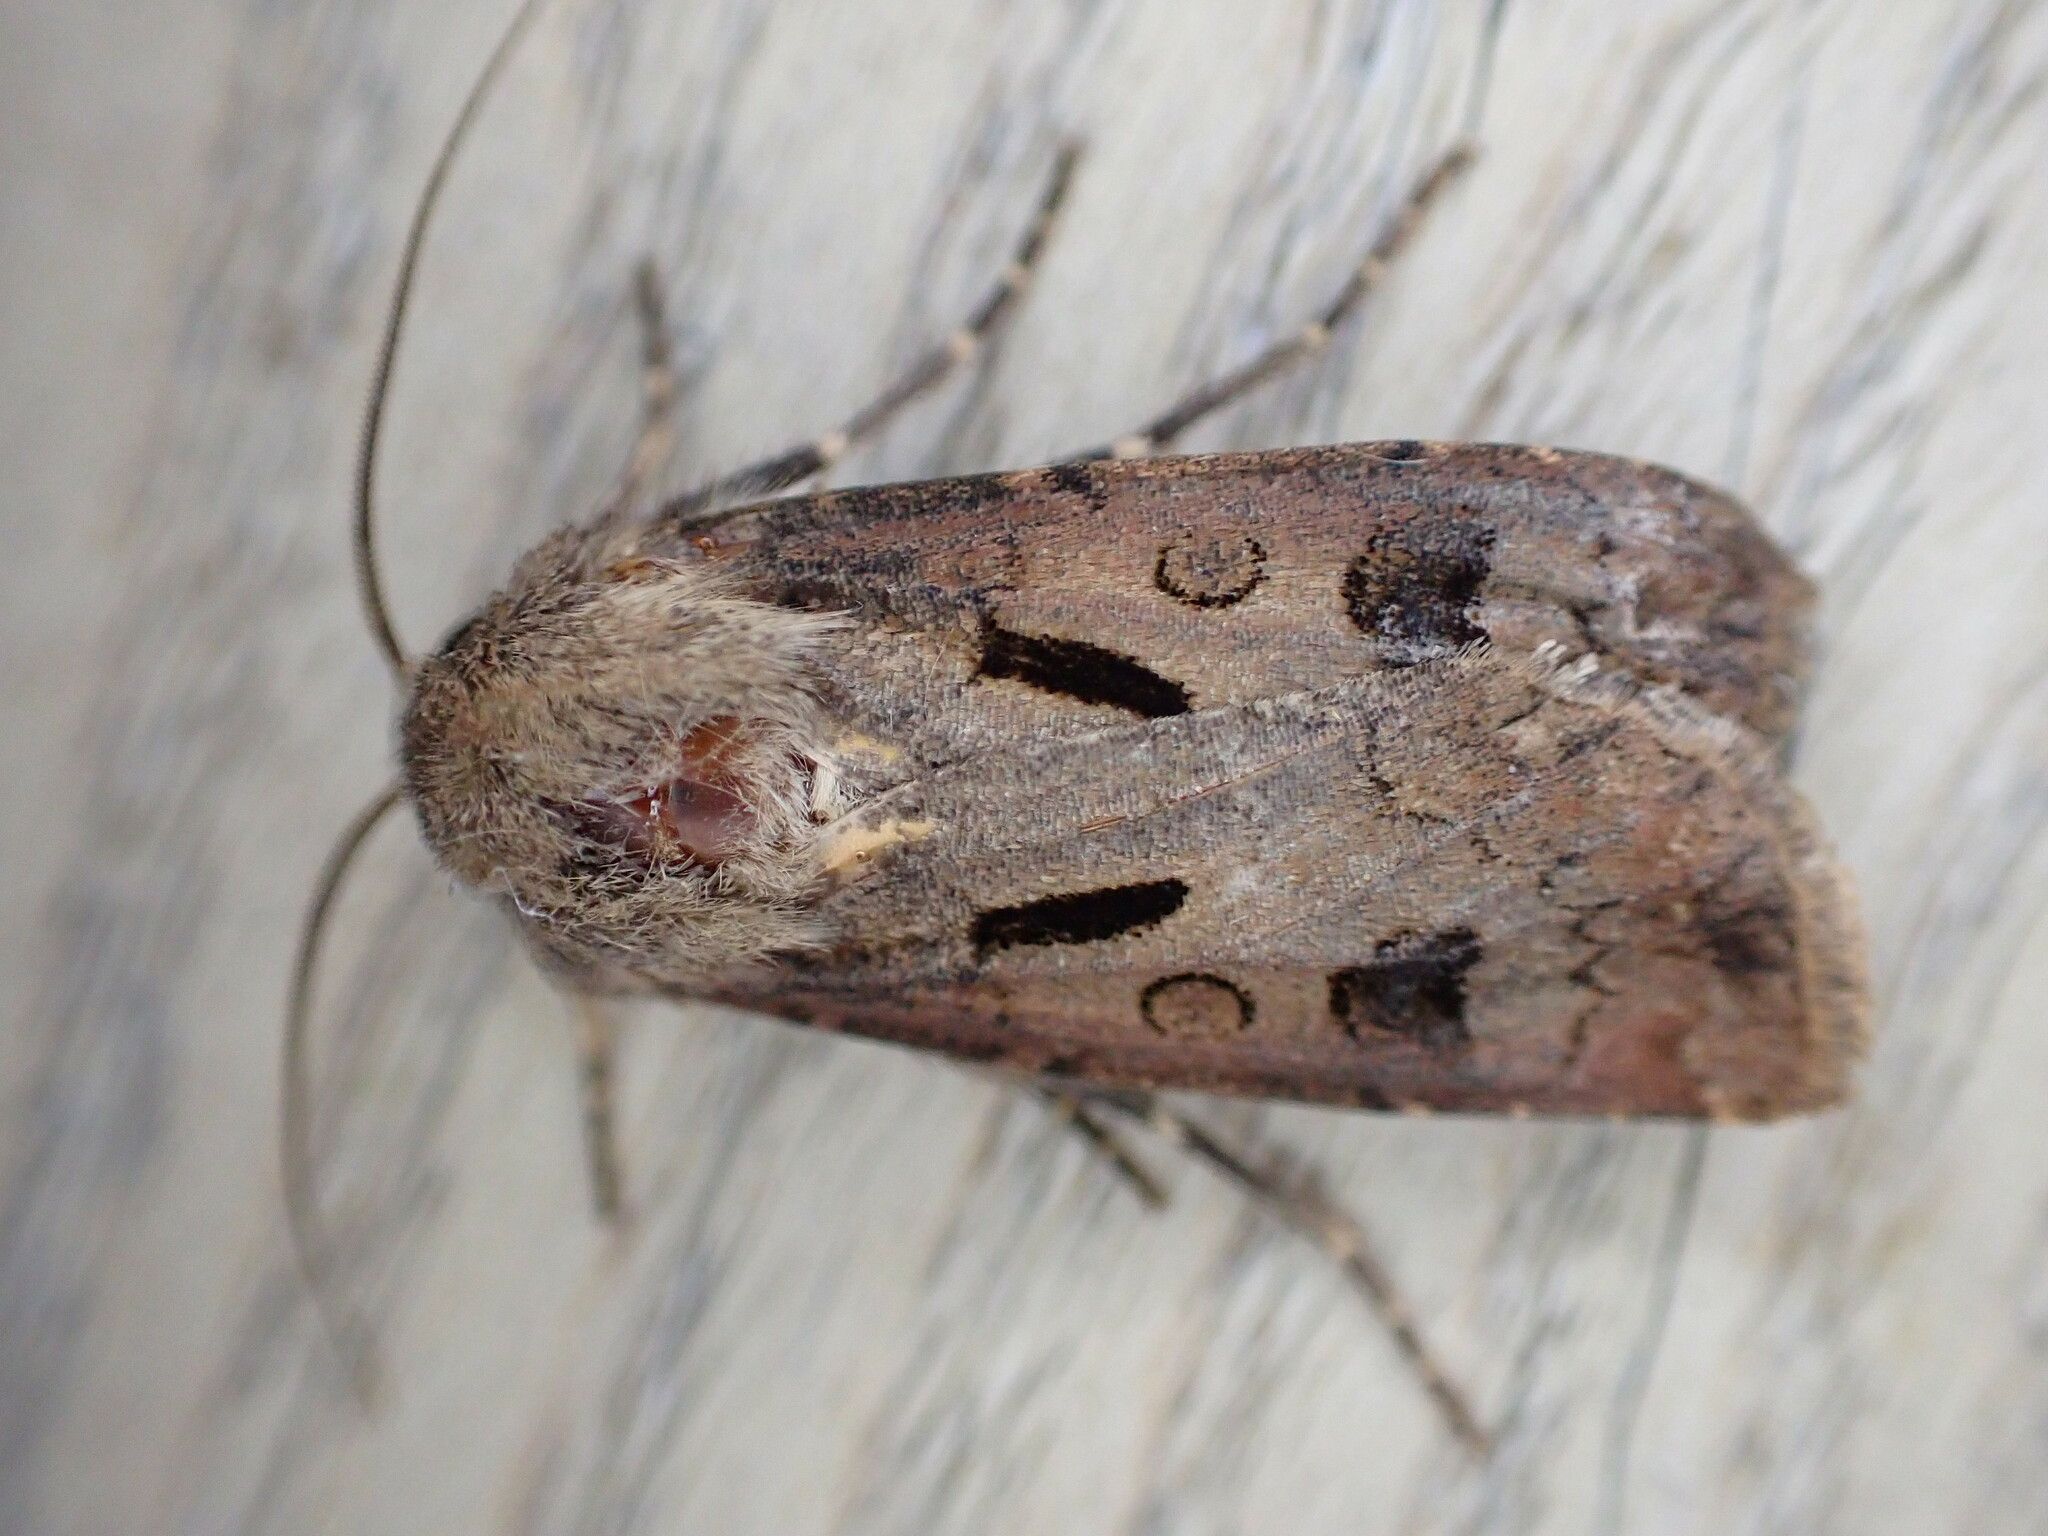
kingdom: Animalia
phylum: Arthropoda
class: Insecta
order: Lepidoptera
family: Noctuidae
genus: Agrotis
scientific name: Agrotis exclamationis
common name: Heart and dart
